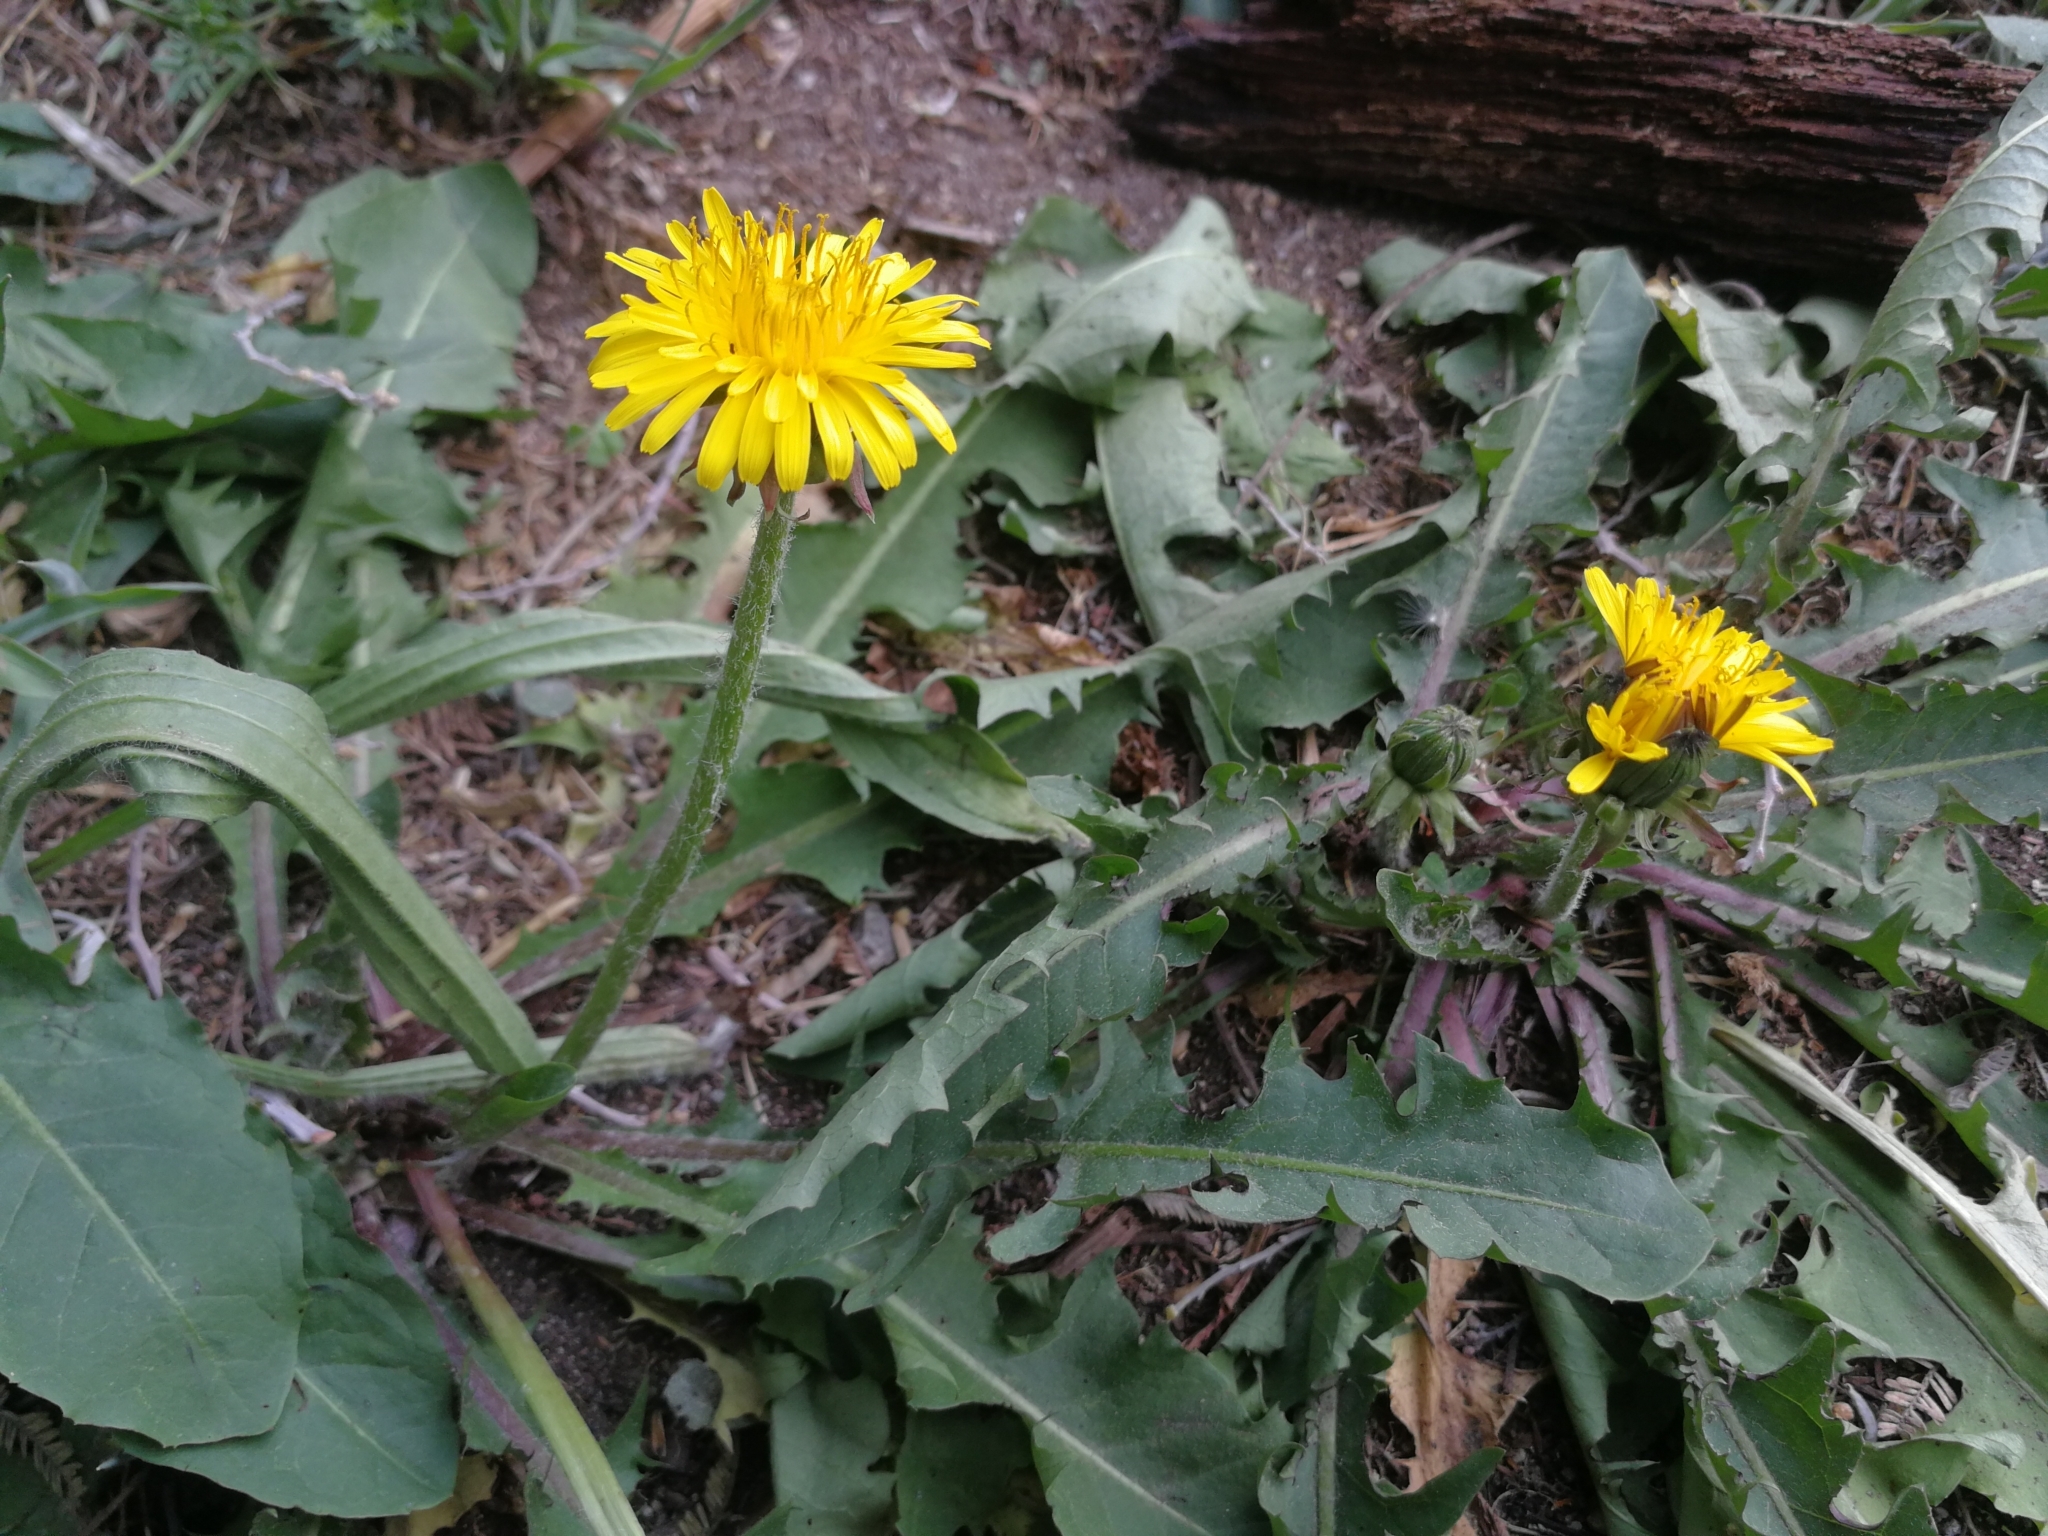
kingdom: Plantae
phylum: Tracheophyta
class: Magnoliopsida
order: Asterales
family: Asteraceae
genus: Taraxacum
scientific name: Taraxacum officinale
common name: Common dandelion
